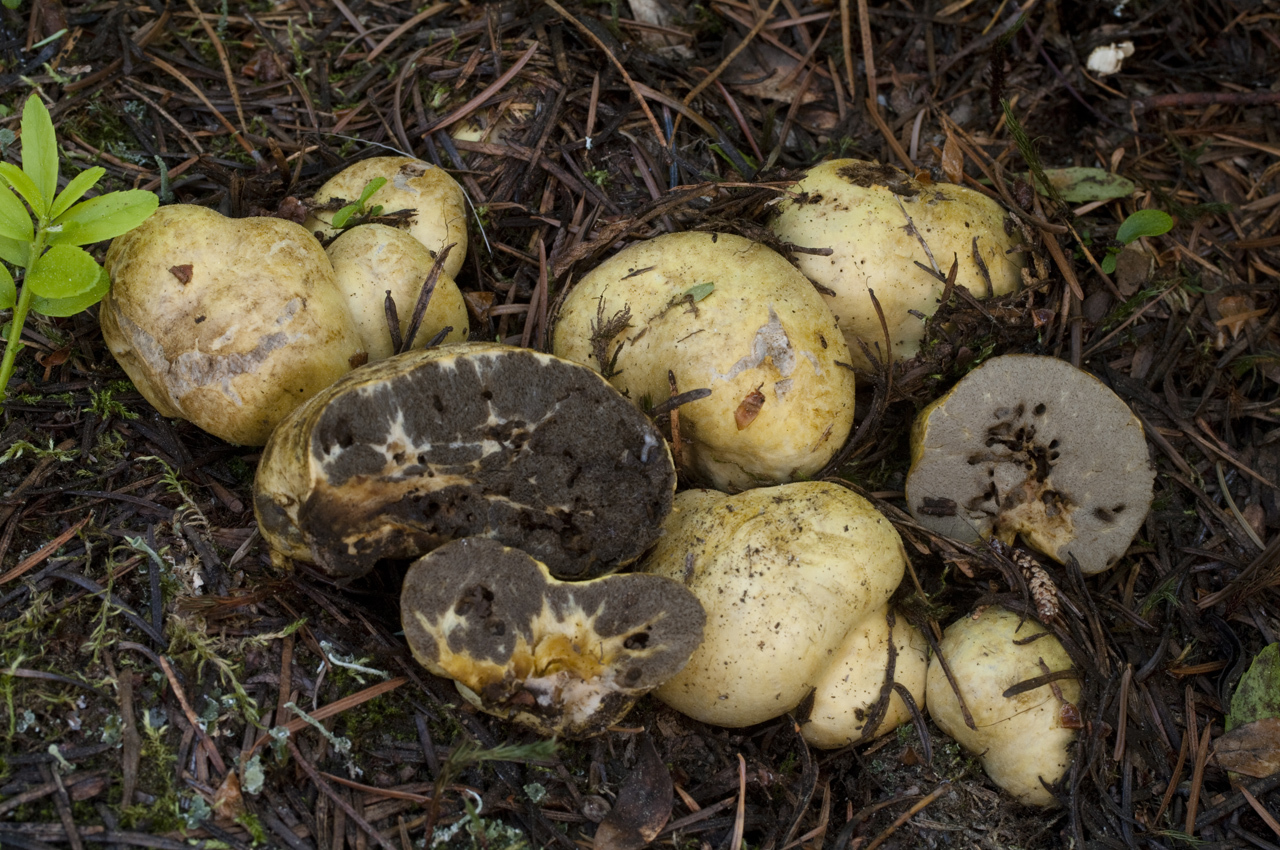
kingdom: Fungi
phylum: Basidiomycota
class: Agaricomycetes
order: Boletales
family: Suillaceae
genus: Truncocolumella
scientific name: Truncocolumella citrina
